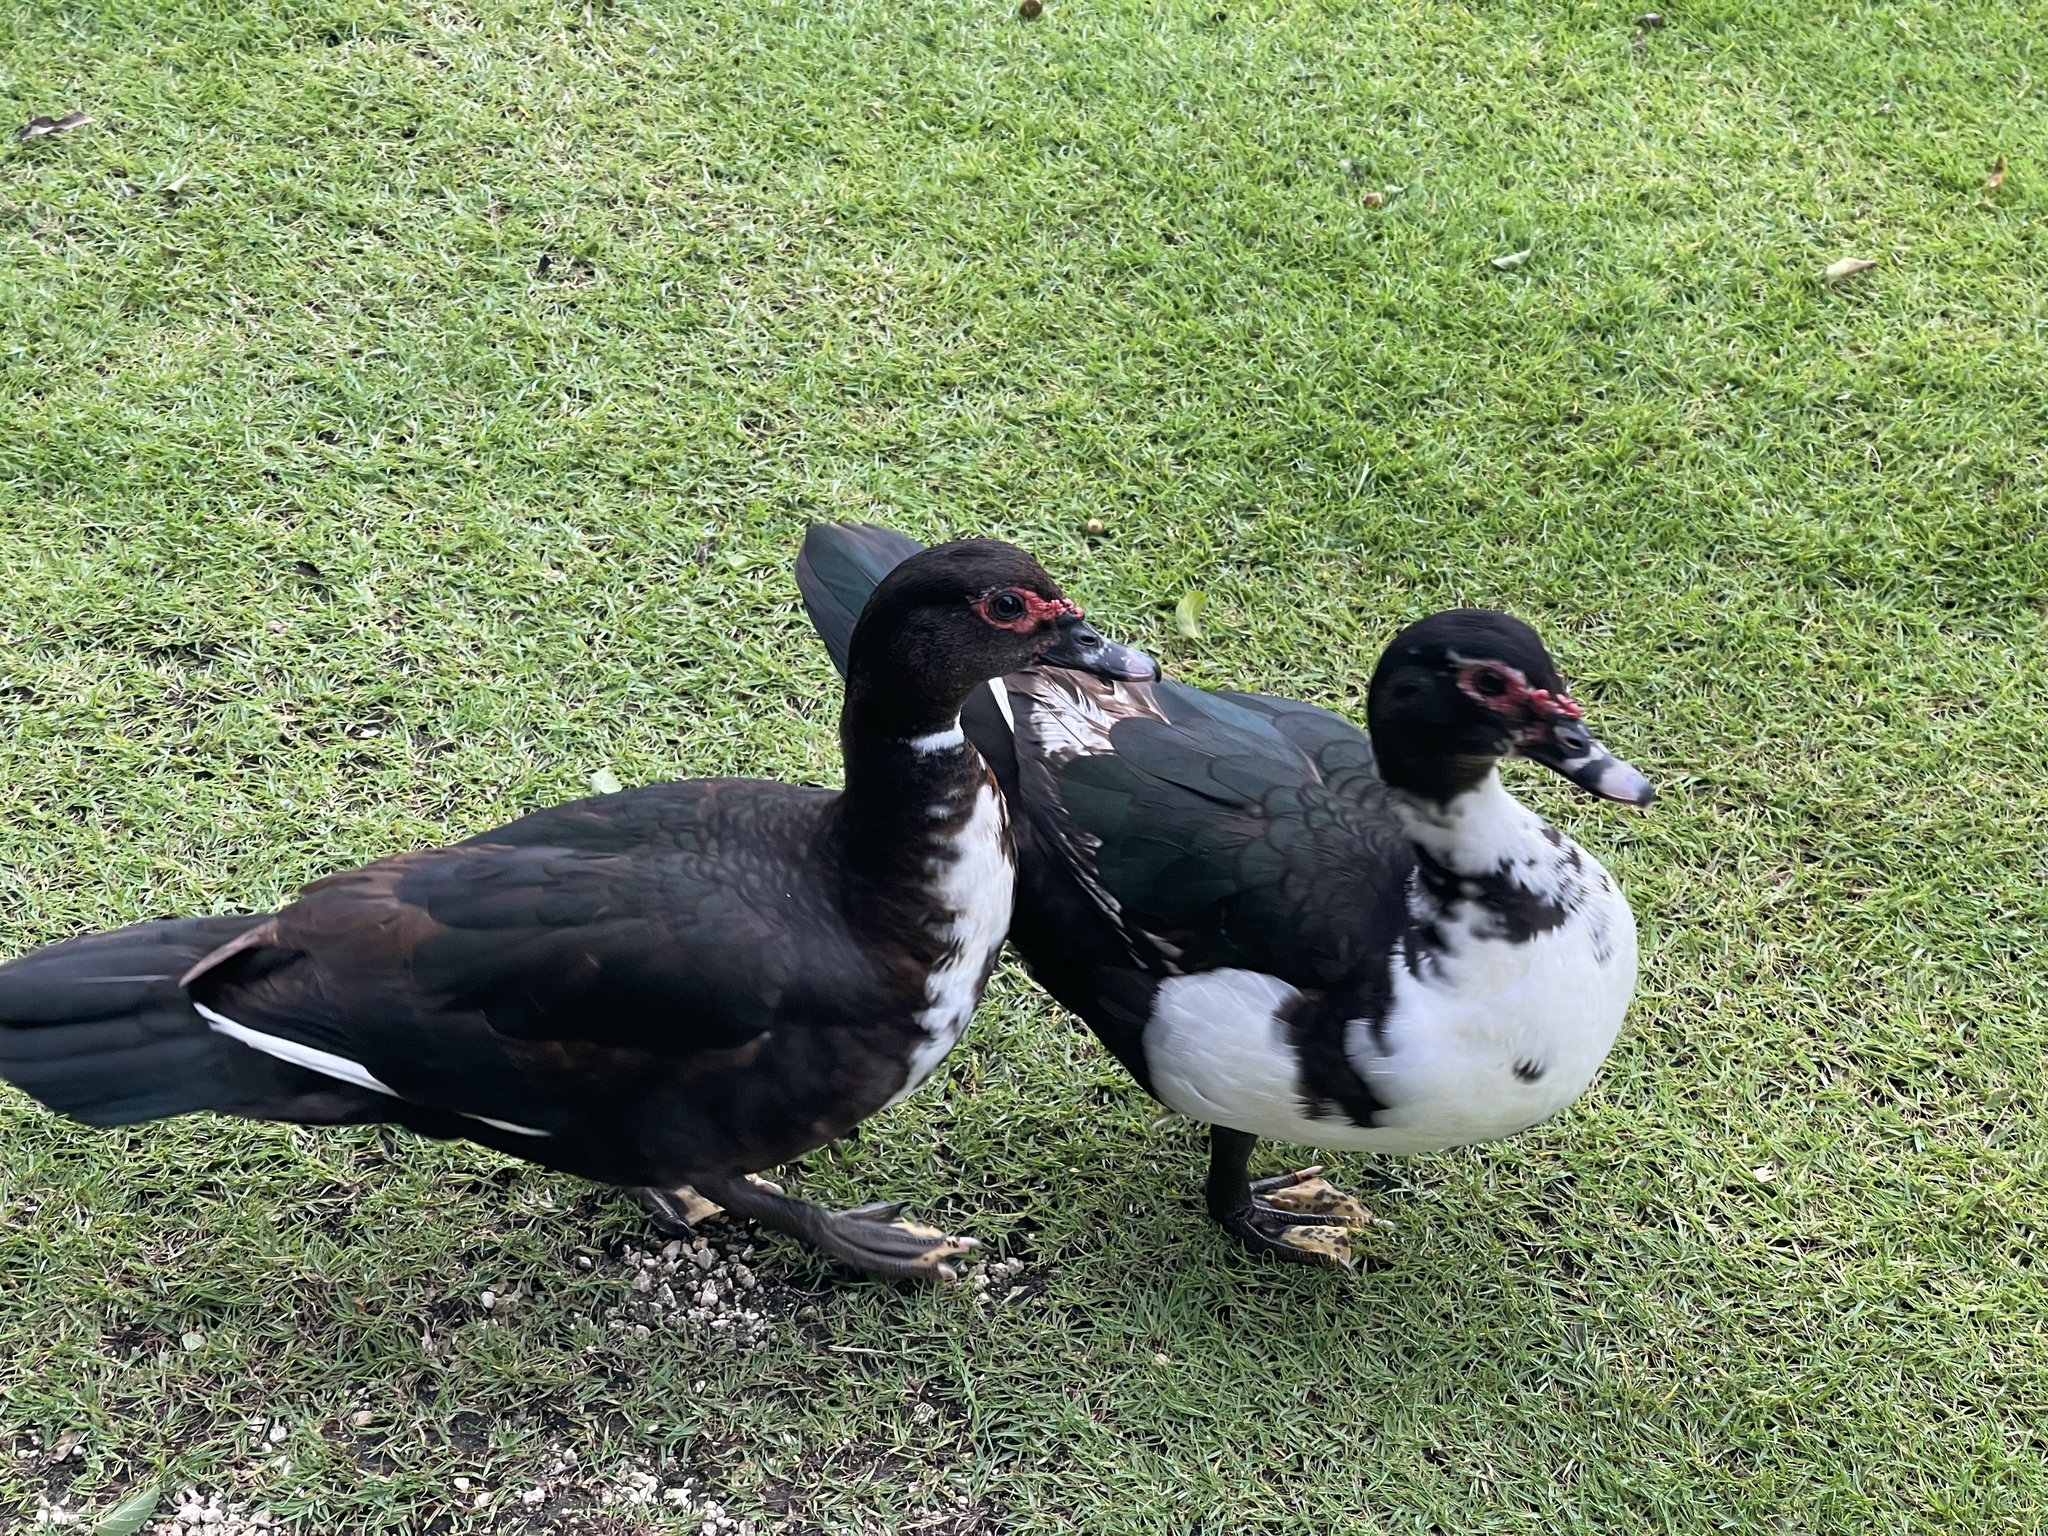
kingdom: Animalia
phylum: Chordata
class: Aves
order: Anseriformes
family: Anatidae
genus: Cairina
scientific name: Cairina moschata
